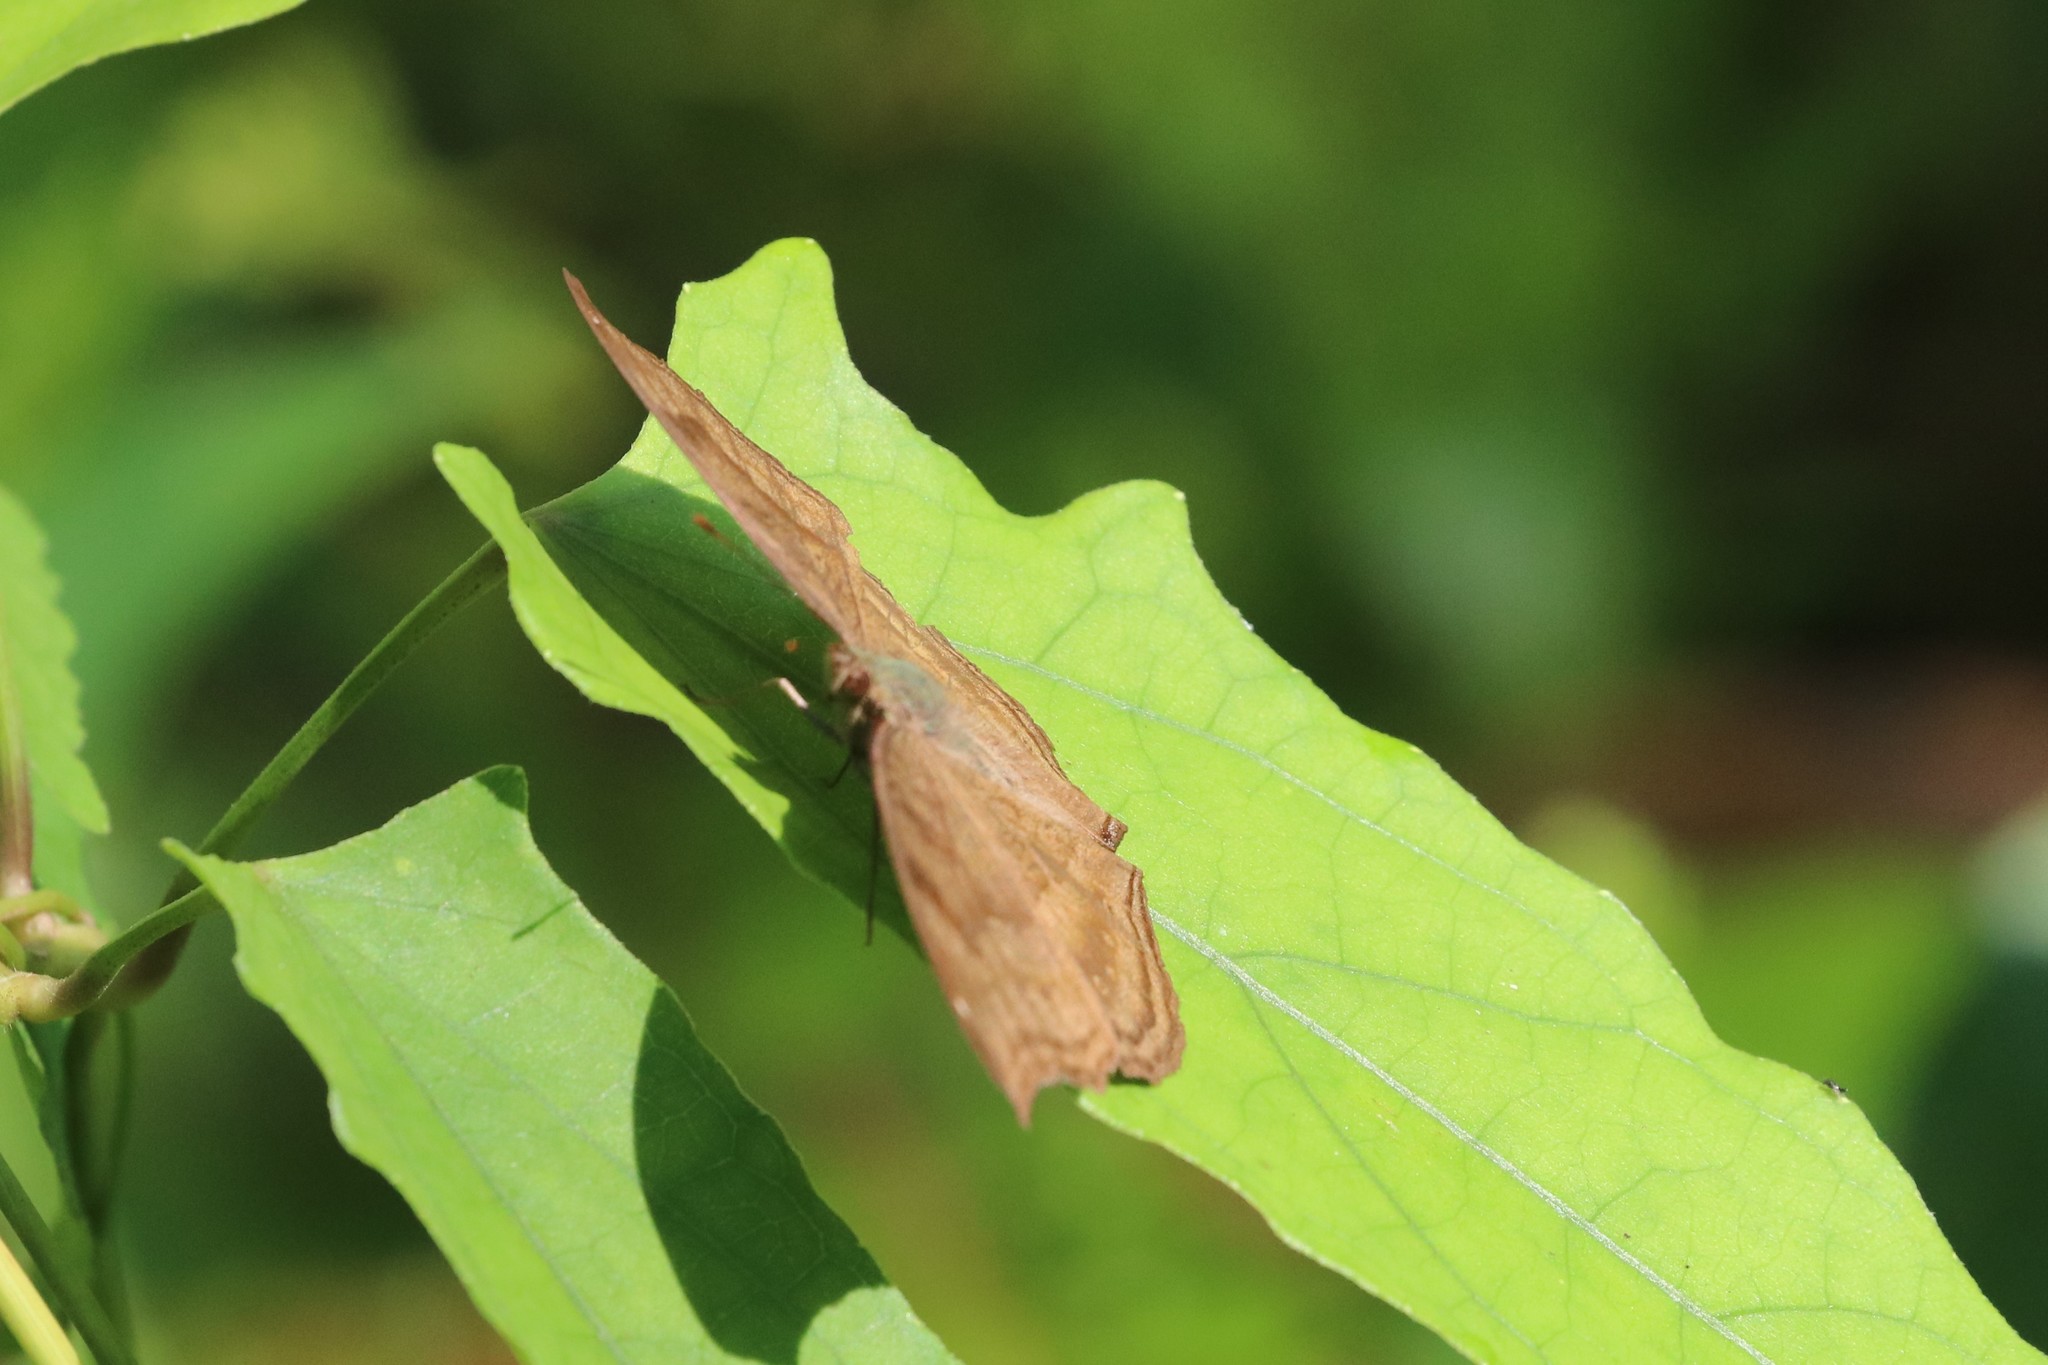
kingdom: Animalia
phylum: Arthropoda
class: Insecta
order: Lepidoptera
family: Nymphalidae
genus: Junonia
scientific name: Junonia iphita
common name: Chocolate pansy
